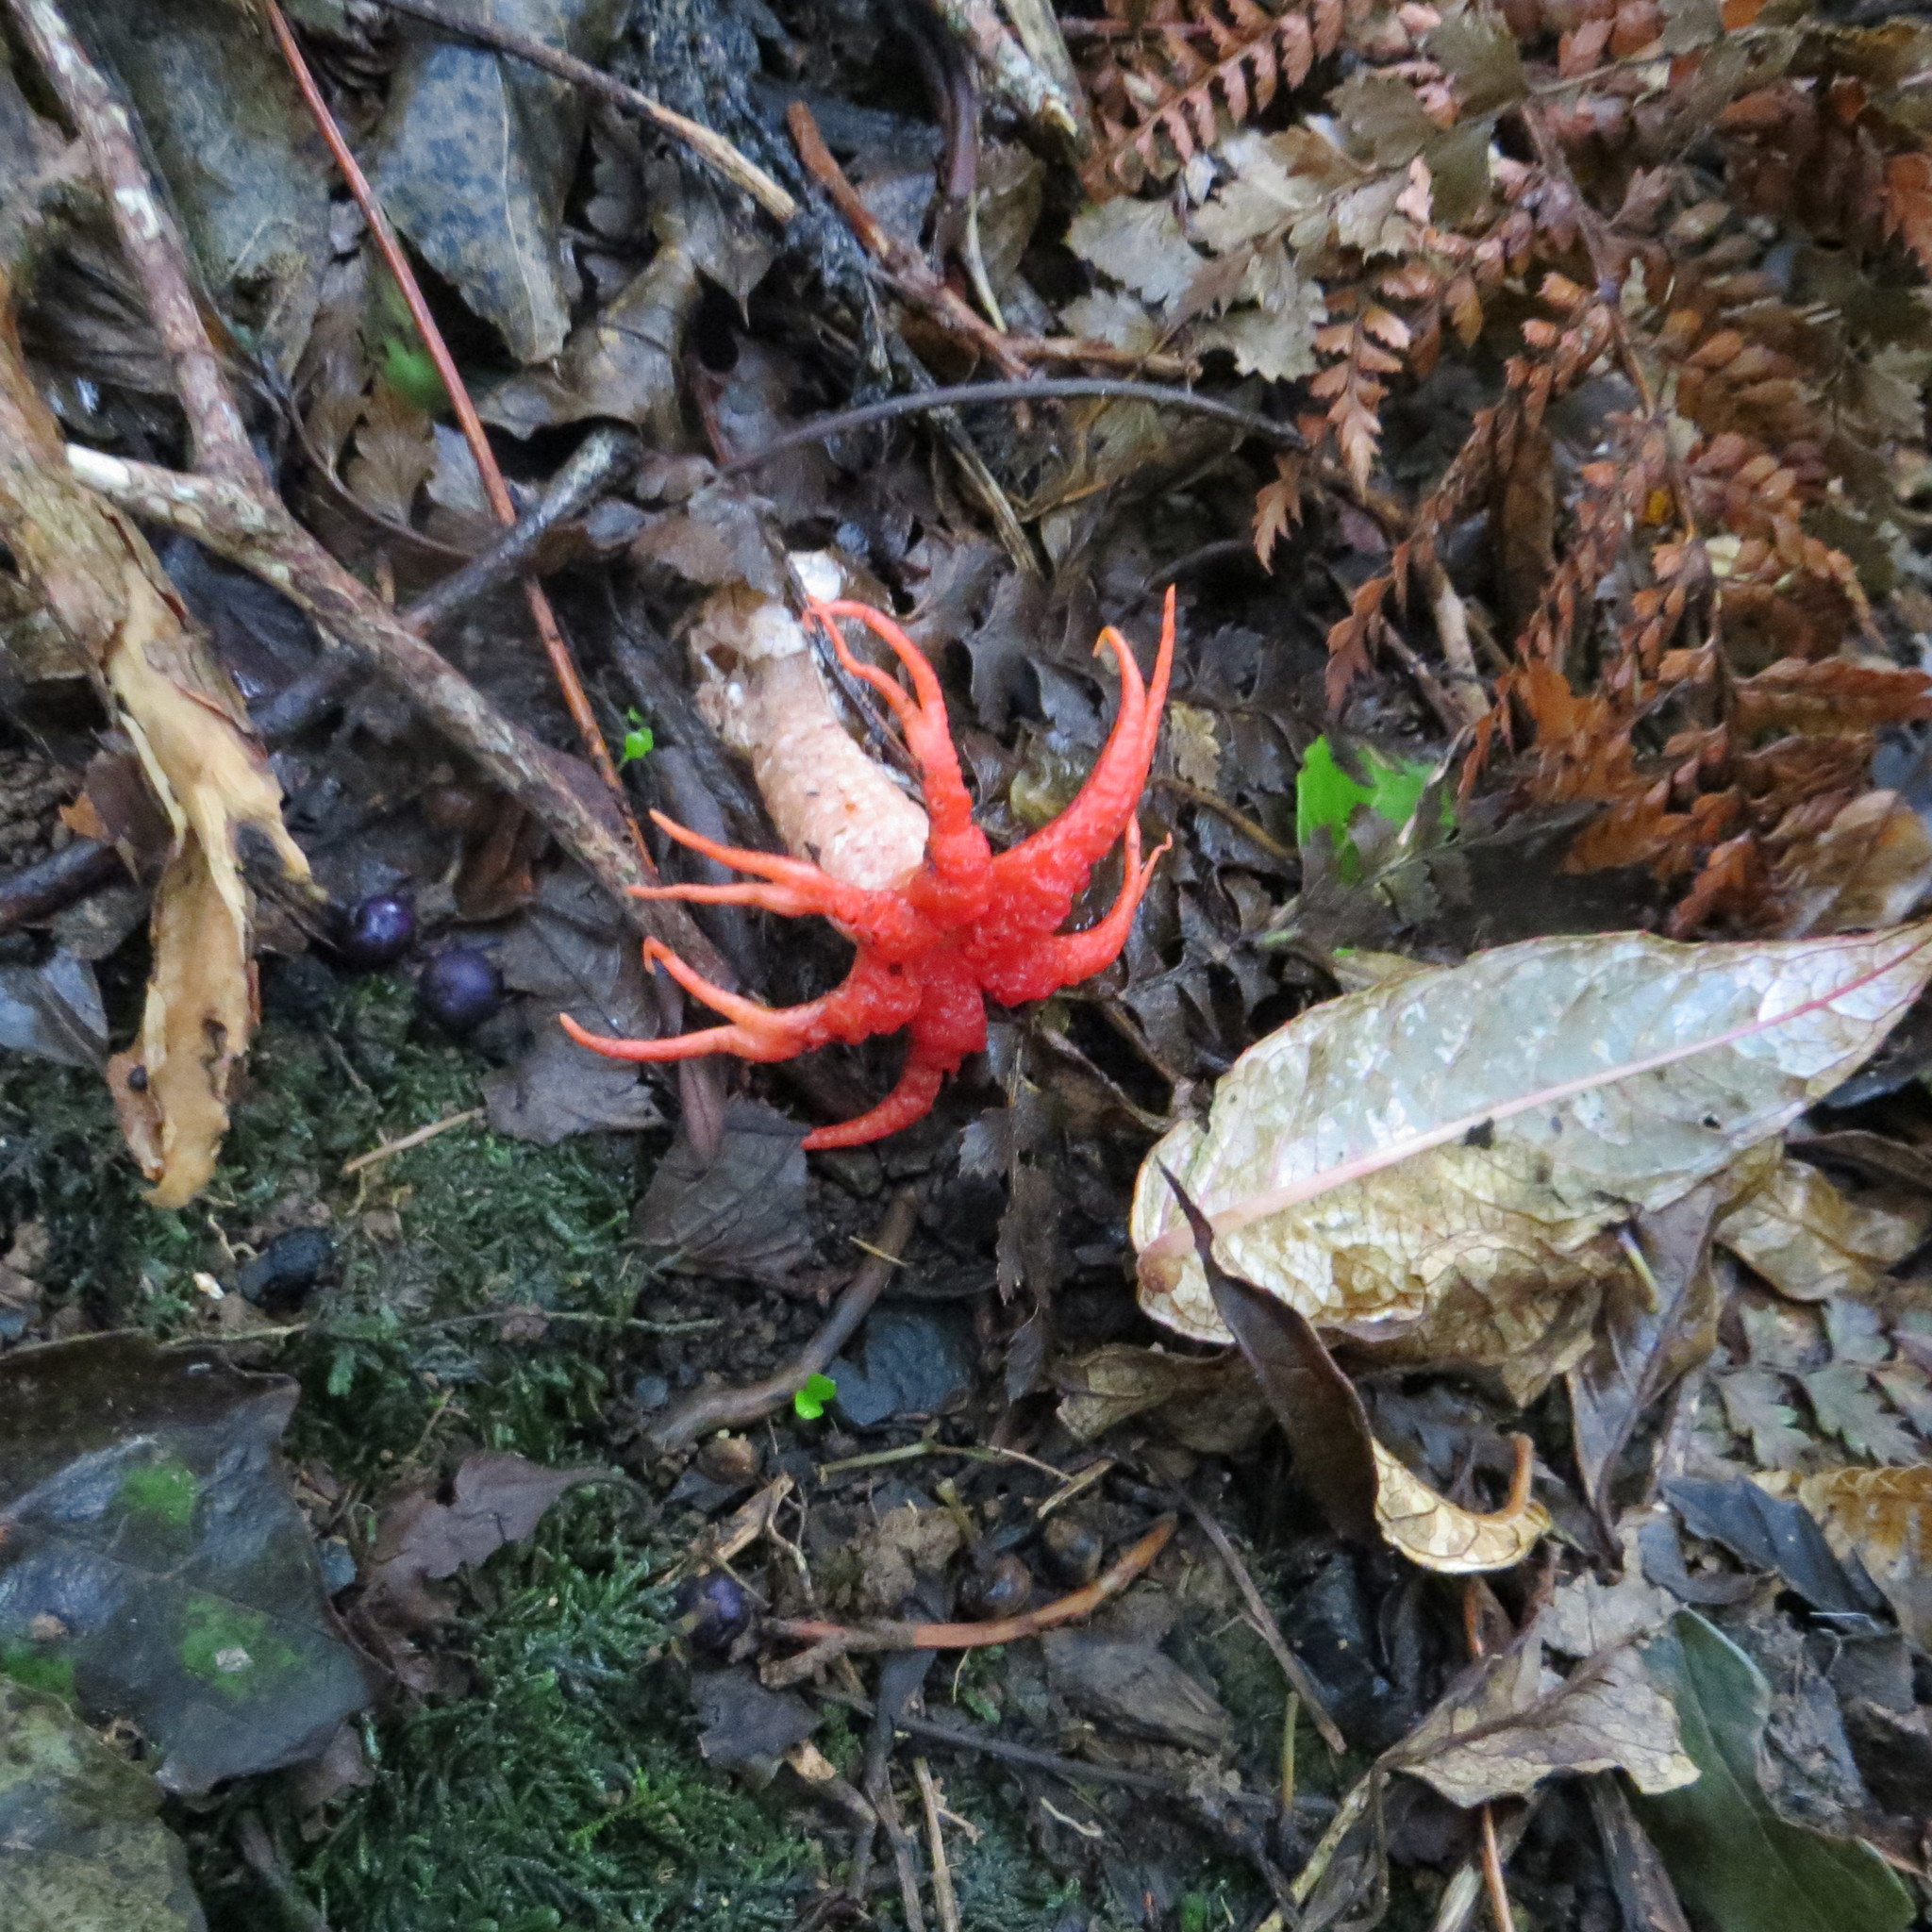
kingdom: Fungi
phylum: Basidiomycota
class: Agaricomycetes
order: Phallales
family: Phallaceae
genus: Aseroe
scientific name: Aseroe rubra
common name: Starfish fungus
